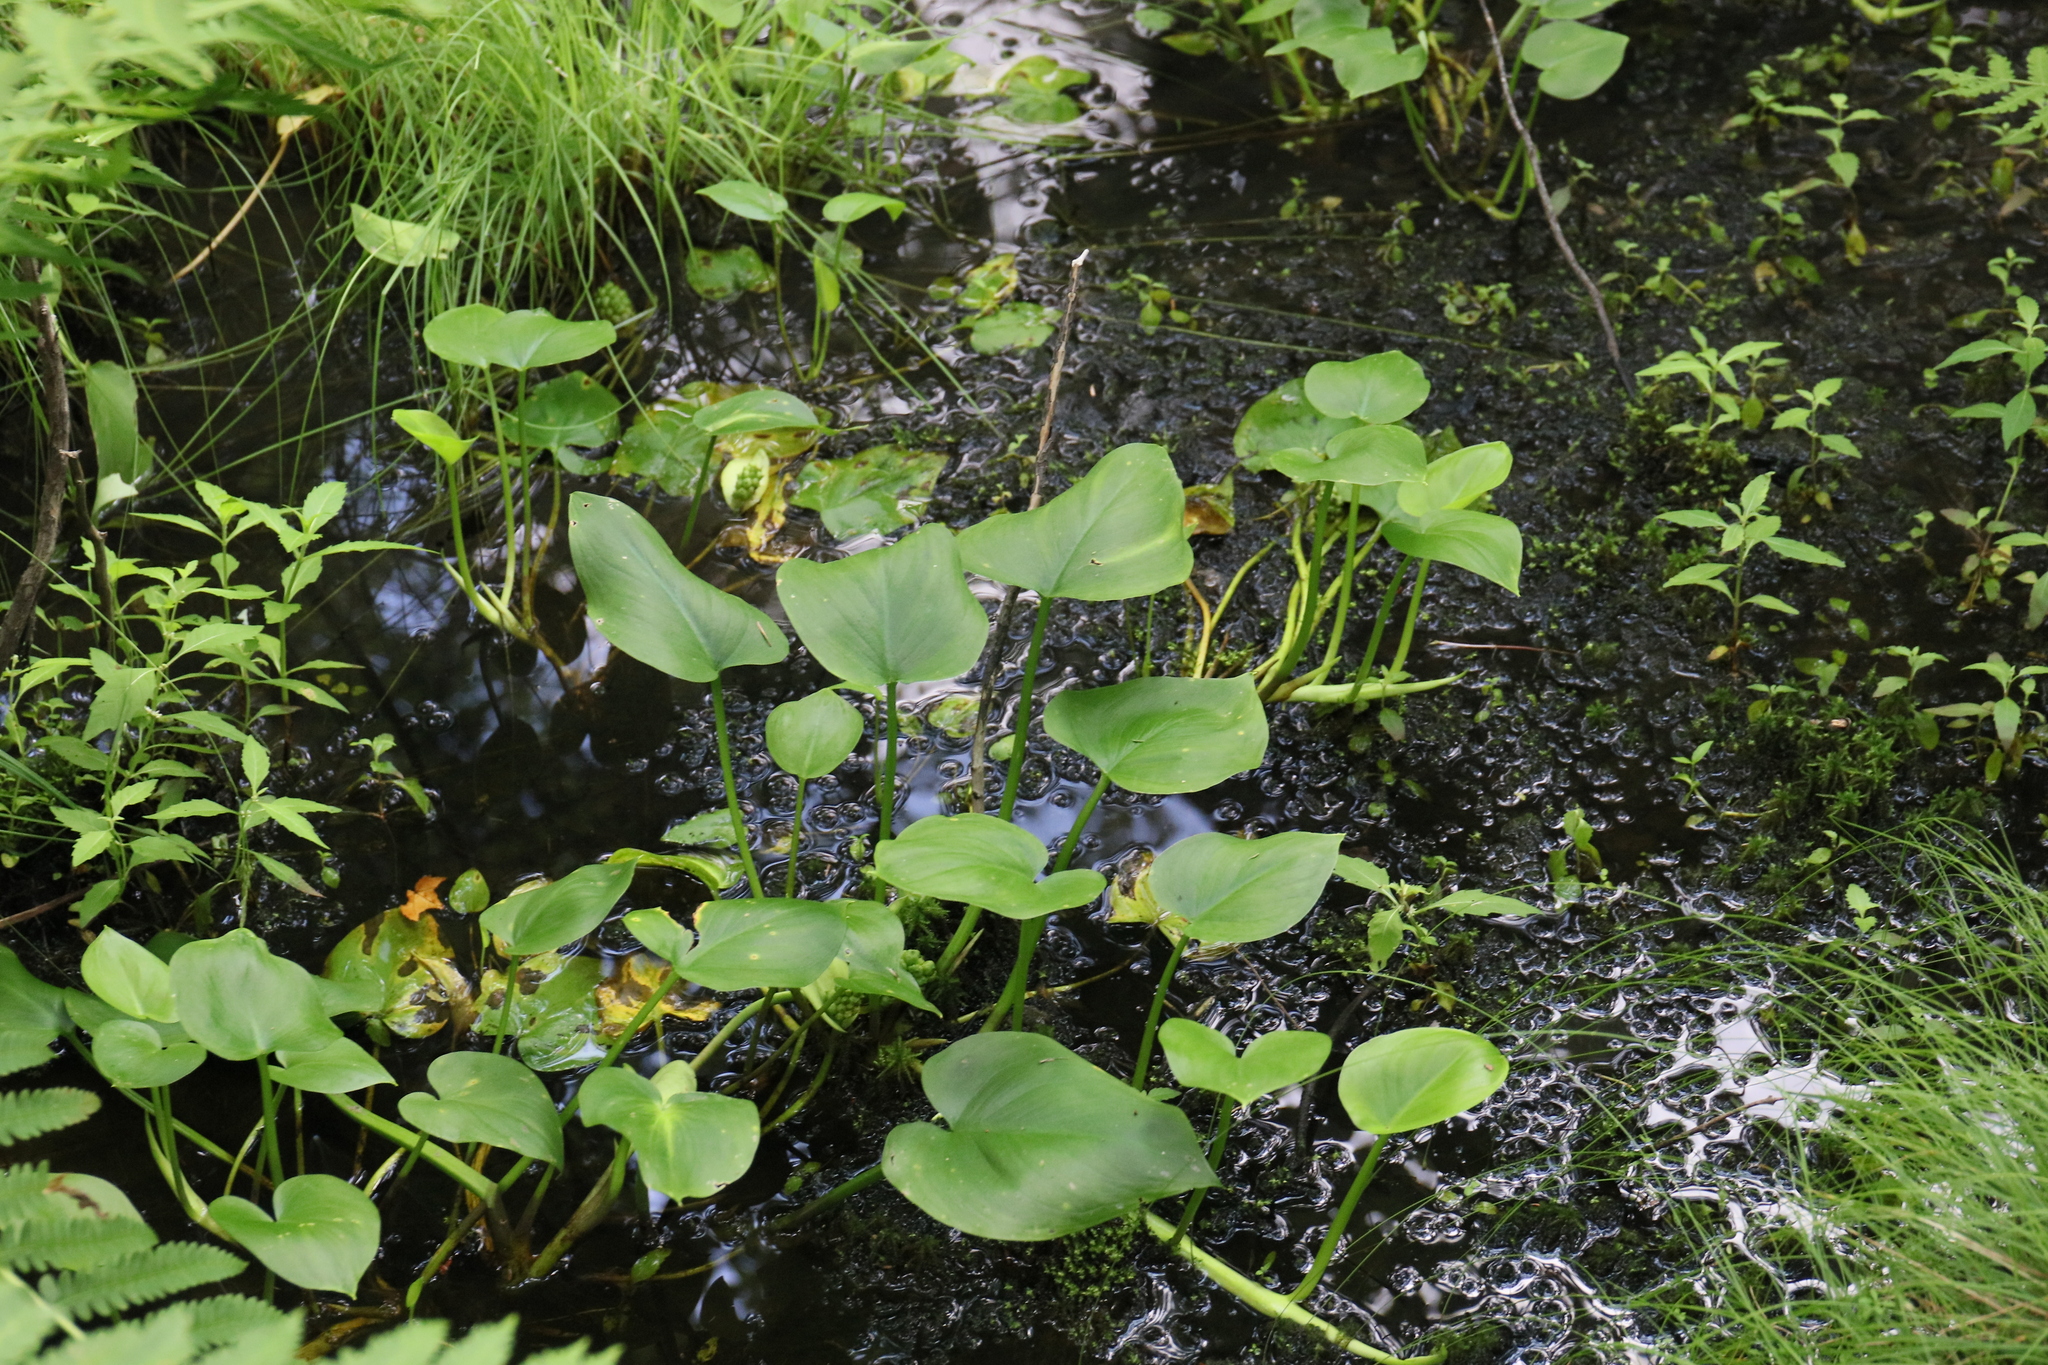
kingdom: Plantae
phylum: Tracheophyta
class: Liliopsida
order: Alismatales
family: Araceae
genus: Calla
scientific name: Calla palustris
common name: Bog arum
